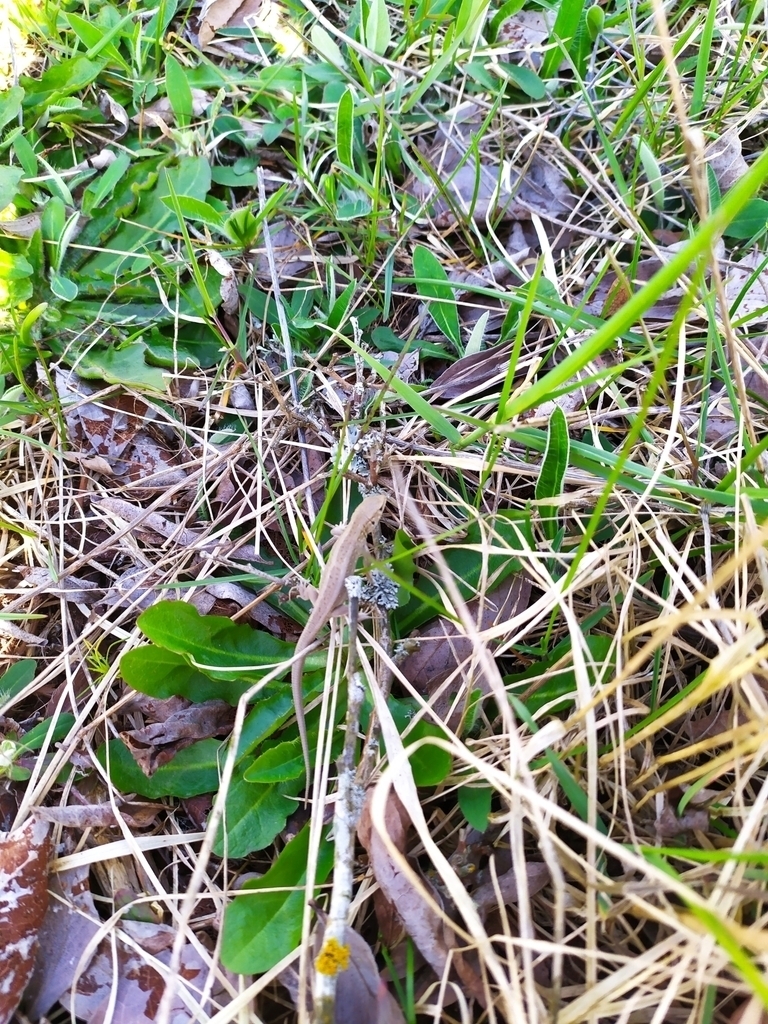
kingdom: Animalia
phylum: Chordata
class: Squamata
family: Lacertidae
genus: Lacerta
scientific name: Lacerta agilis
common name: Sand lizard
